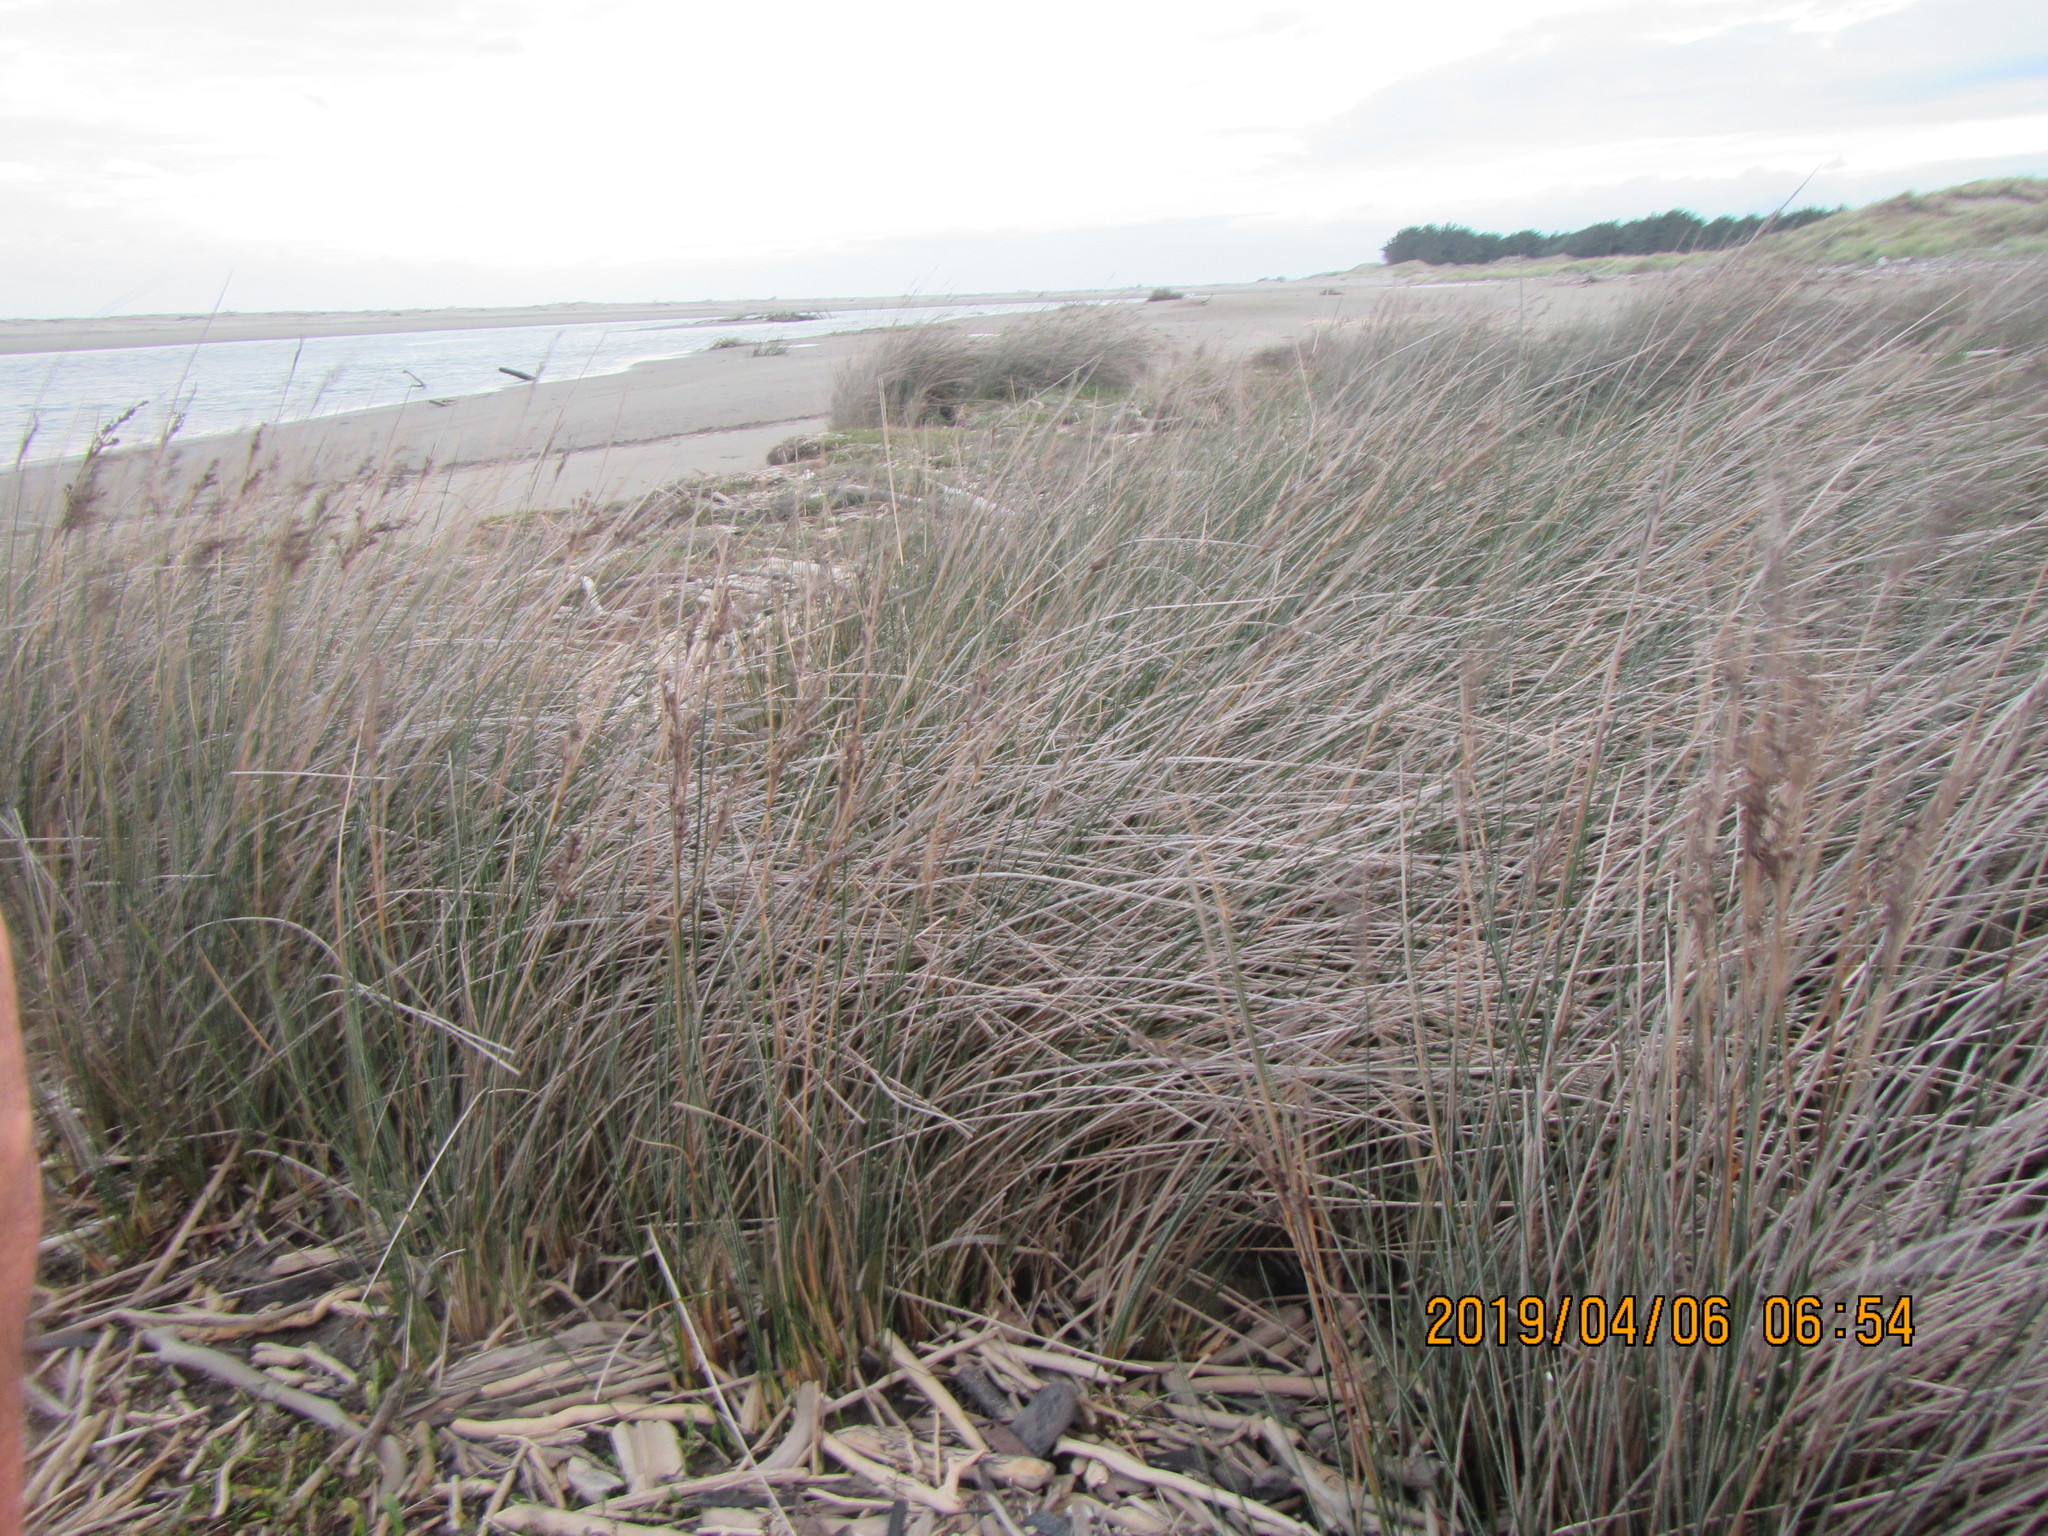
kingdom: Plantae
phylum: Tracheophyta
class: Liliopsida
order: Poales
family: Juncaceae
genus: Juncus
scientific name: Juncus kraussii
